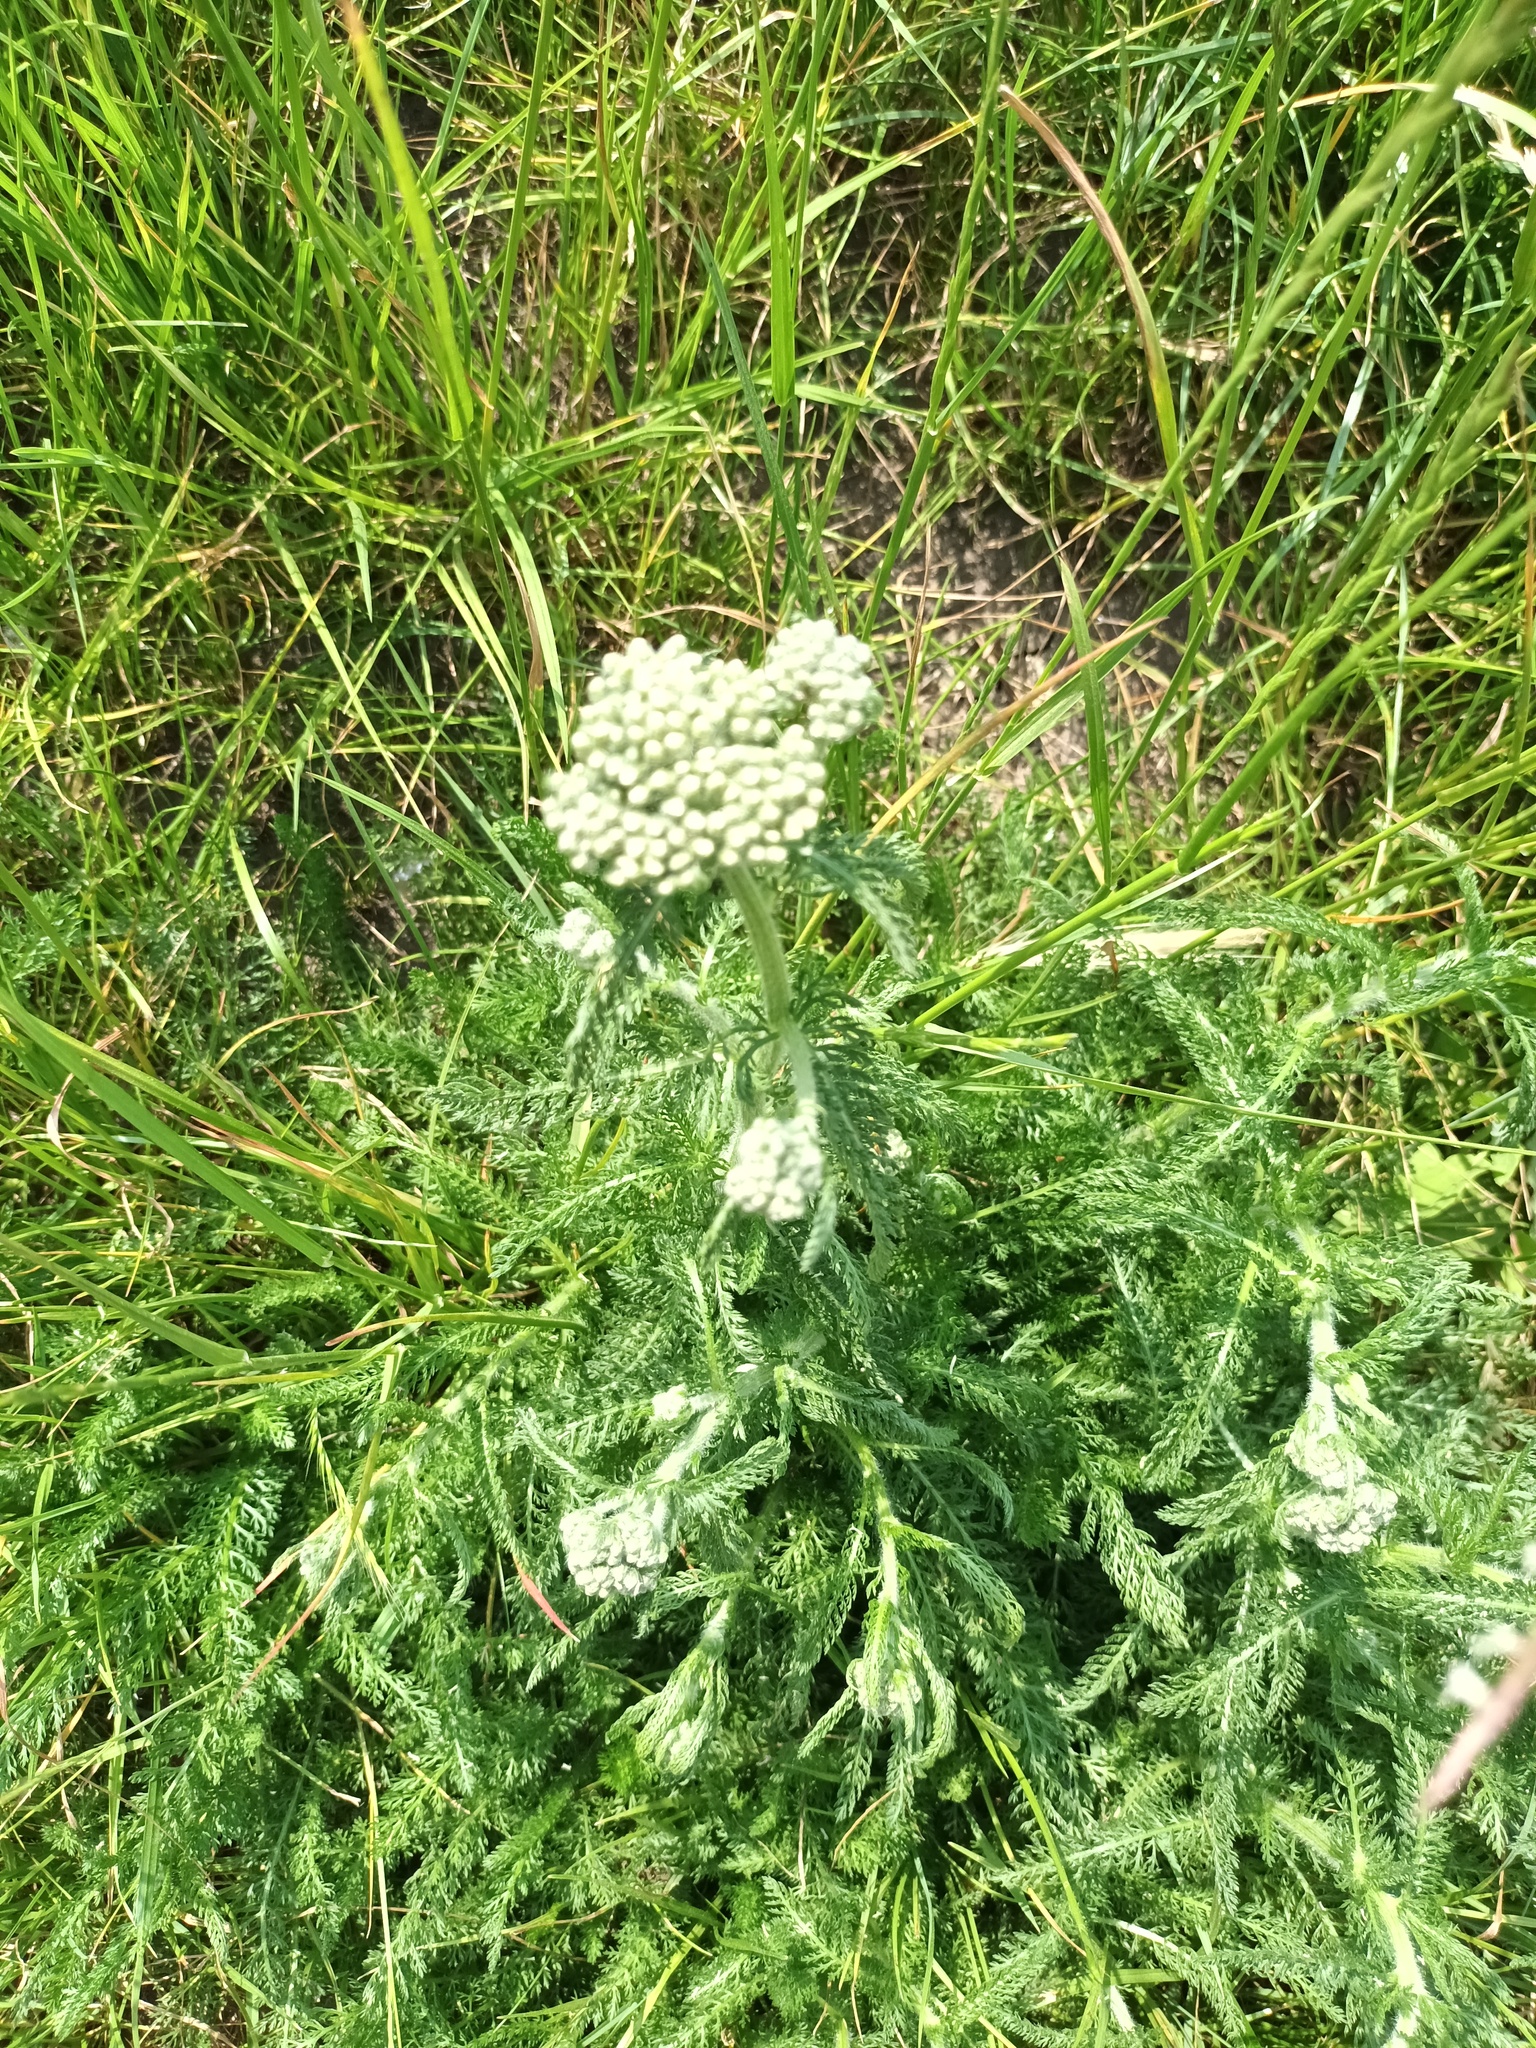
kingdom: Plantae
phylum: Tracheophyta
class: Magnoliopsida
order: Asterales
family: Asteraceae
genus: Achillea
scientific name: Achillea millefolium
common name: Yarrow
